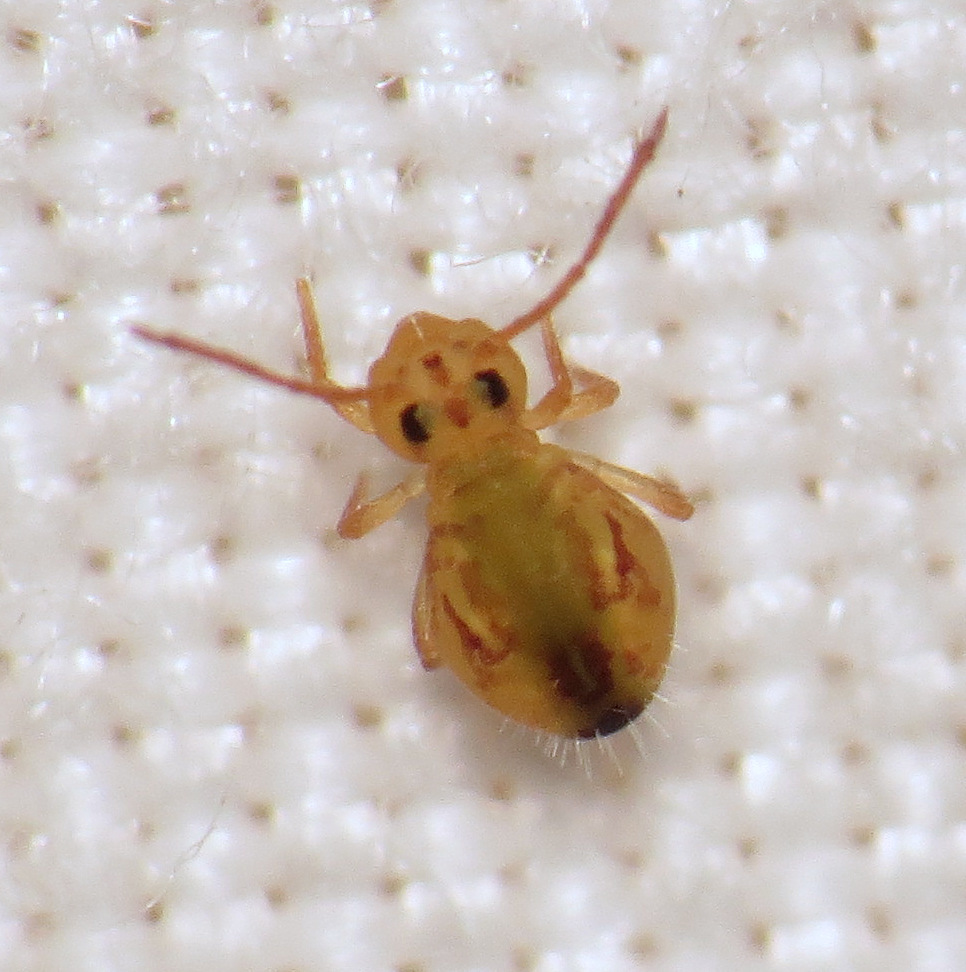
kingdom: Animalia
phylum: Arthropoda
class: Collembola
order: Symphypleona
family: Dicyrtomidae
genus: Dicyrtomina
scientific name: Dicyrtomina minuta
